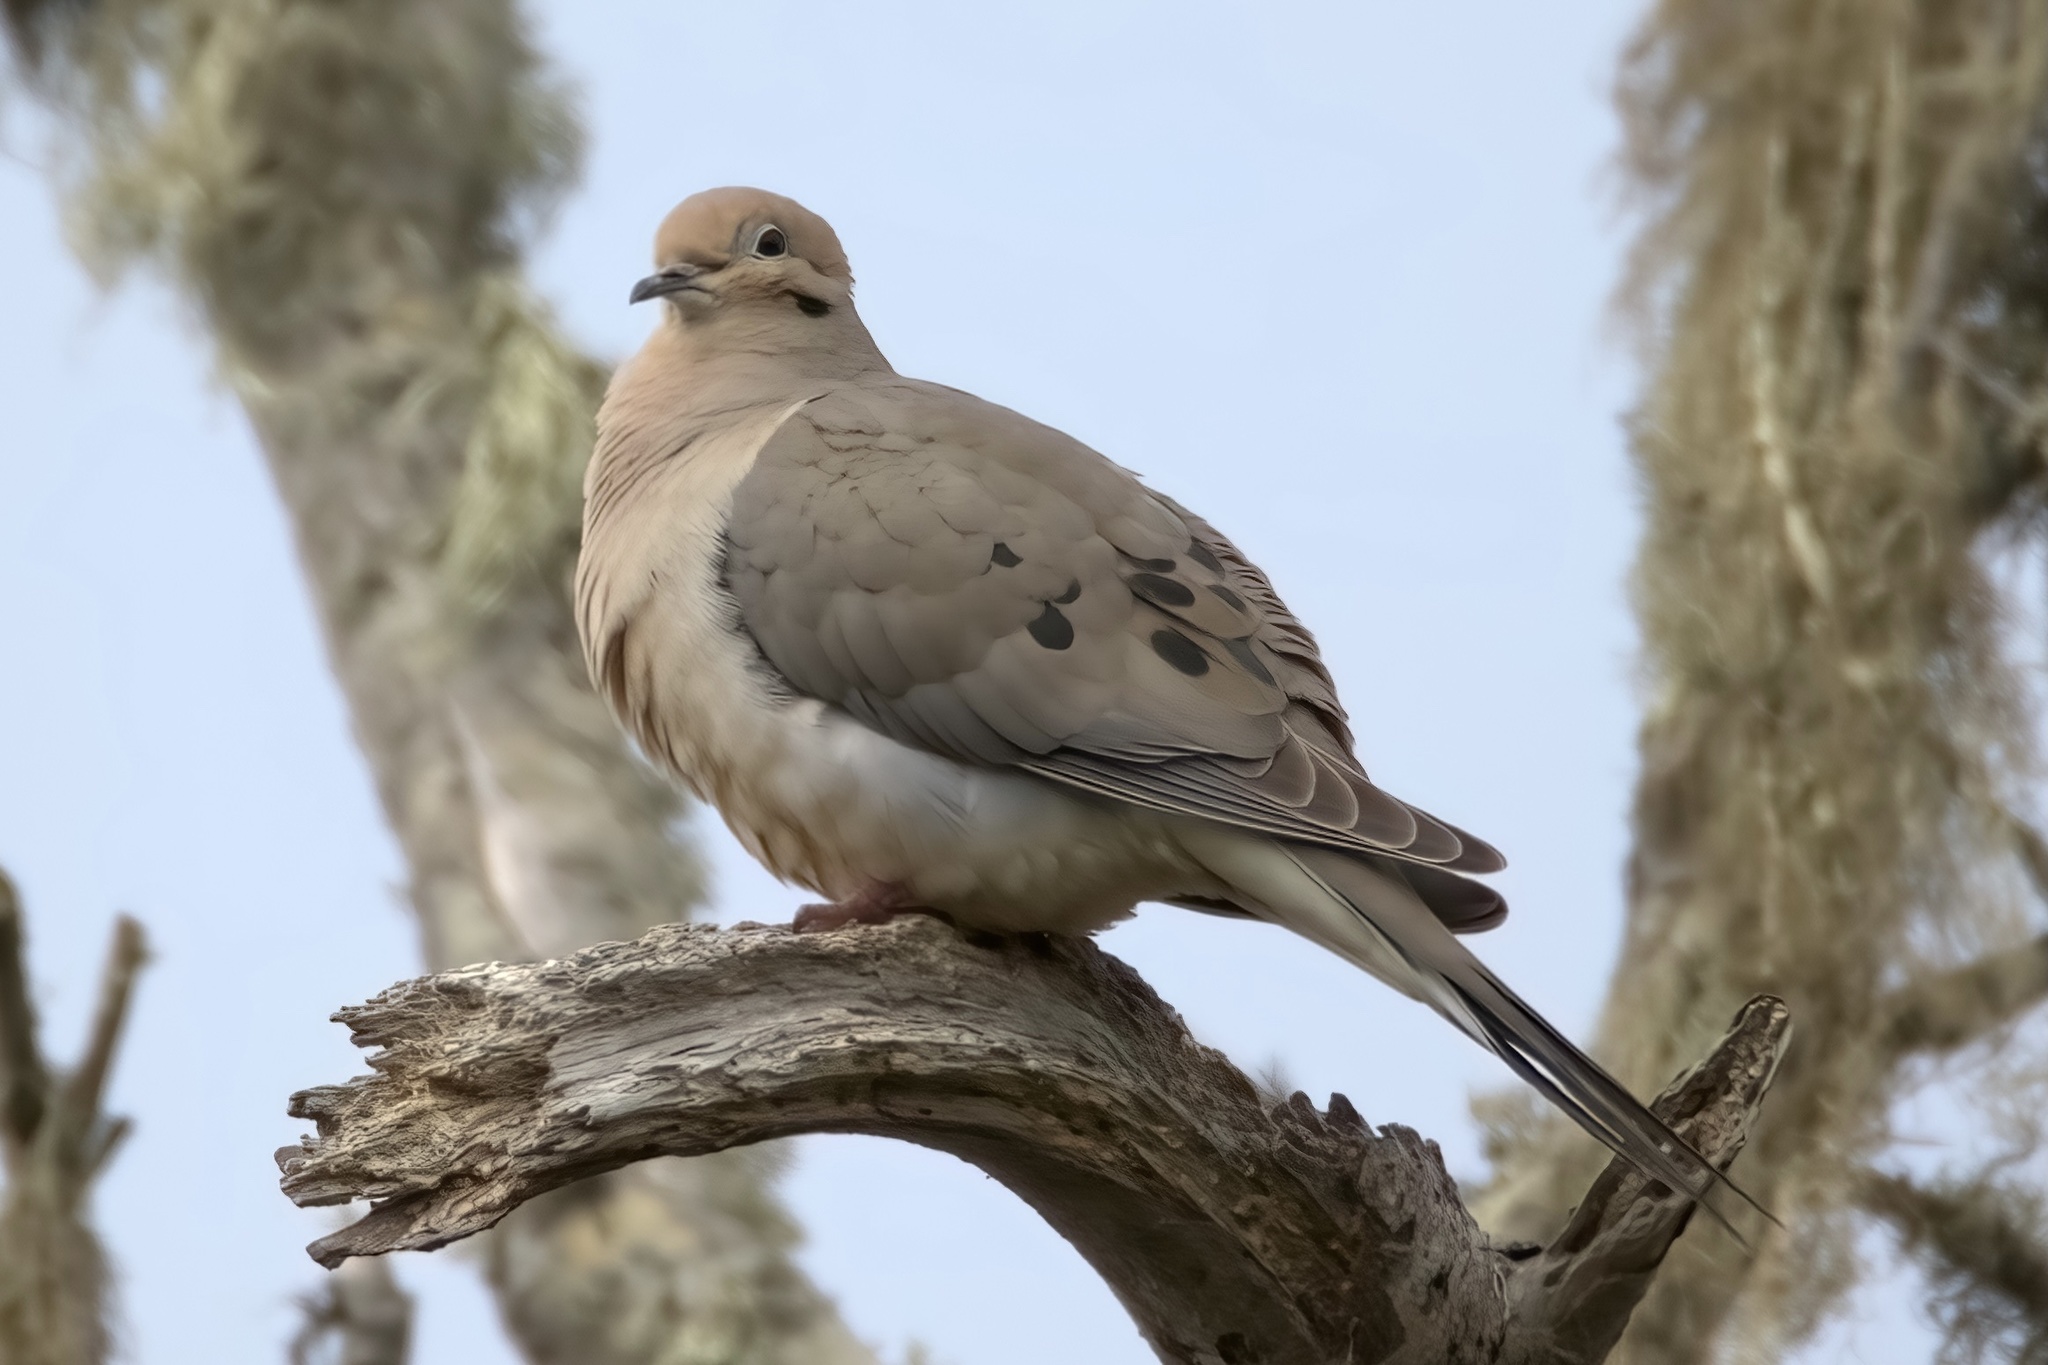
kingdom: Animalia
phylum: Chordata
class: Aves
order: Columbiformes
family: Columbidae
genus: Zenaida
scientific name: Zenaida macroura
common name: Mourning dove
